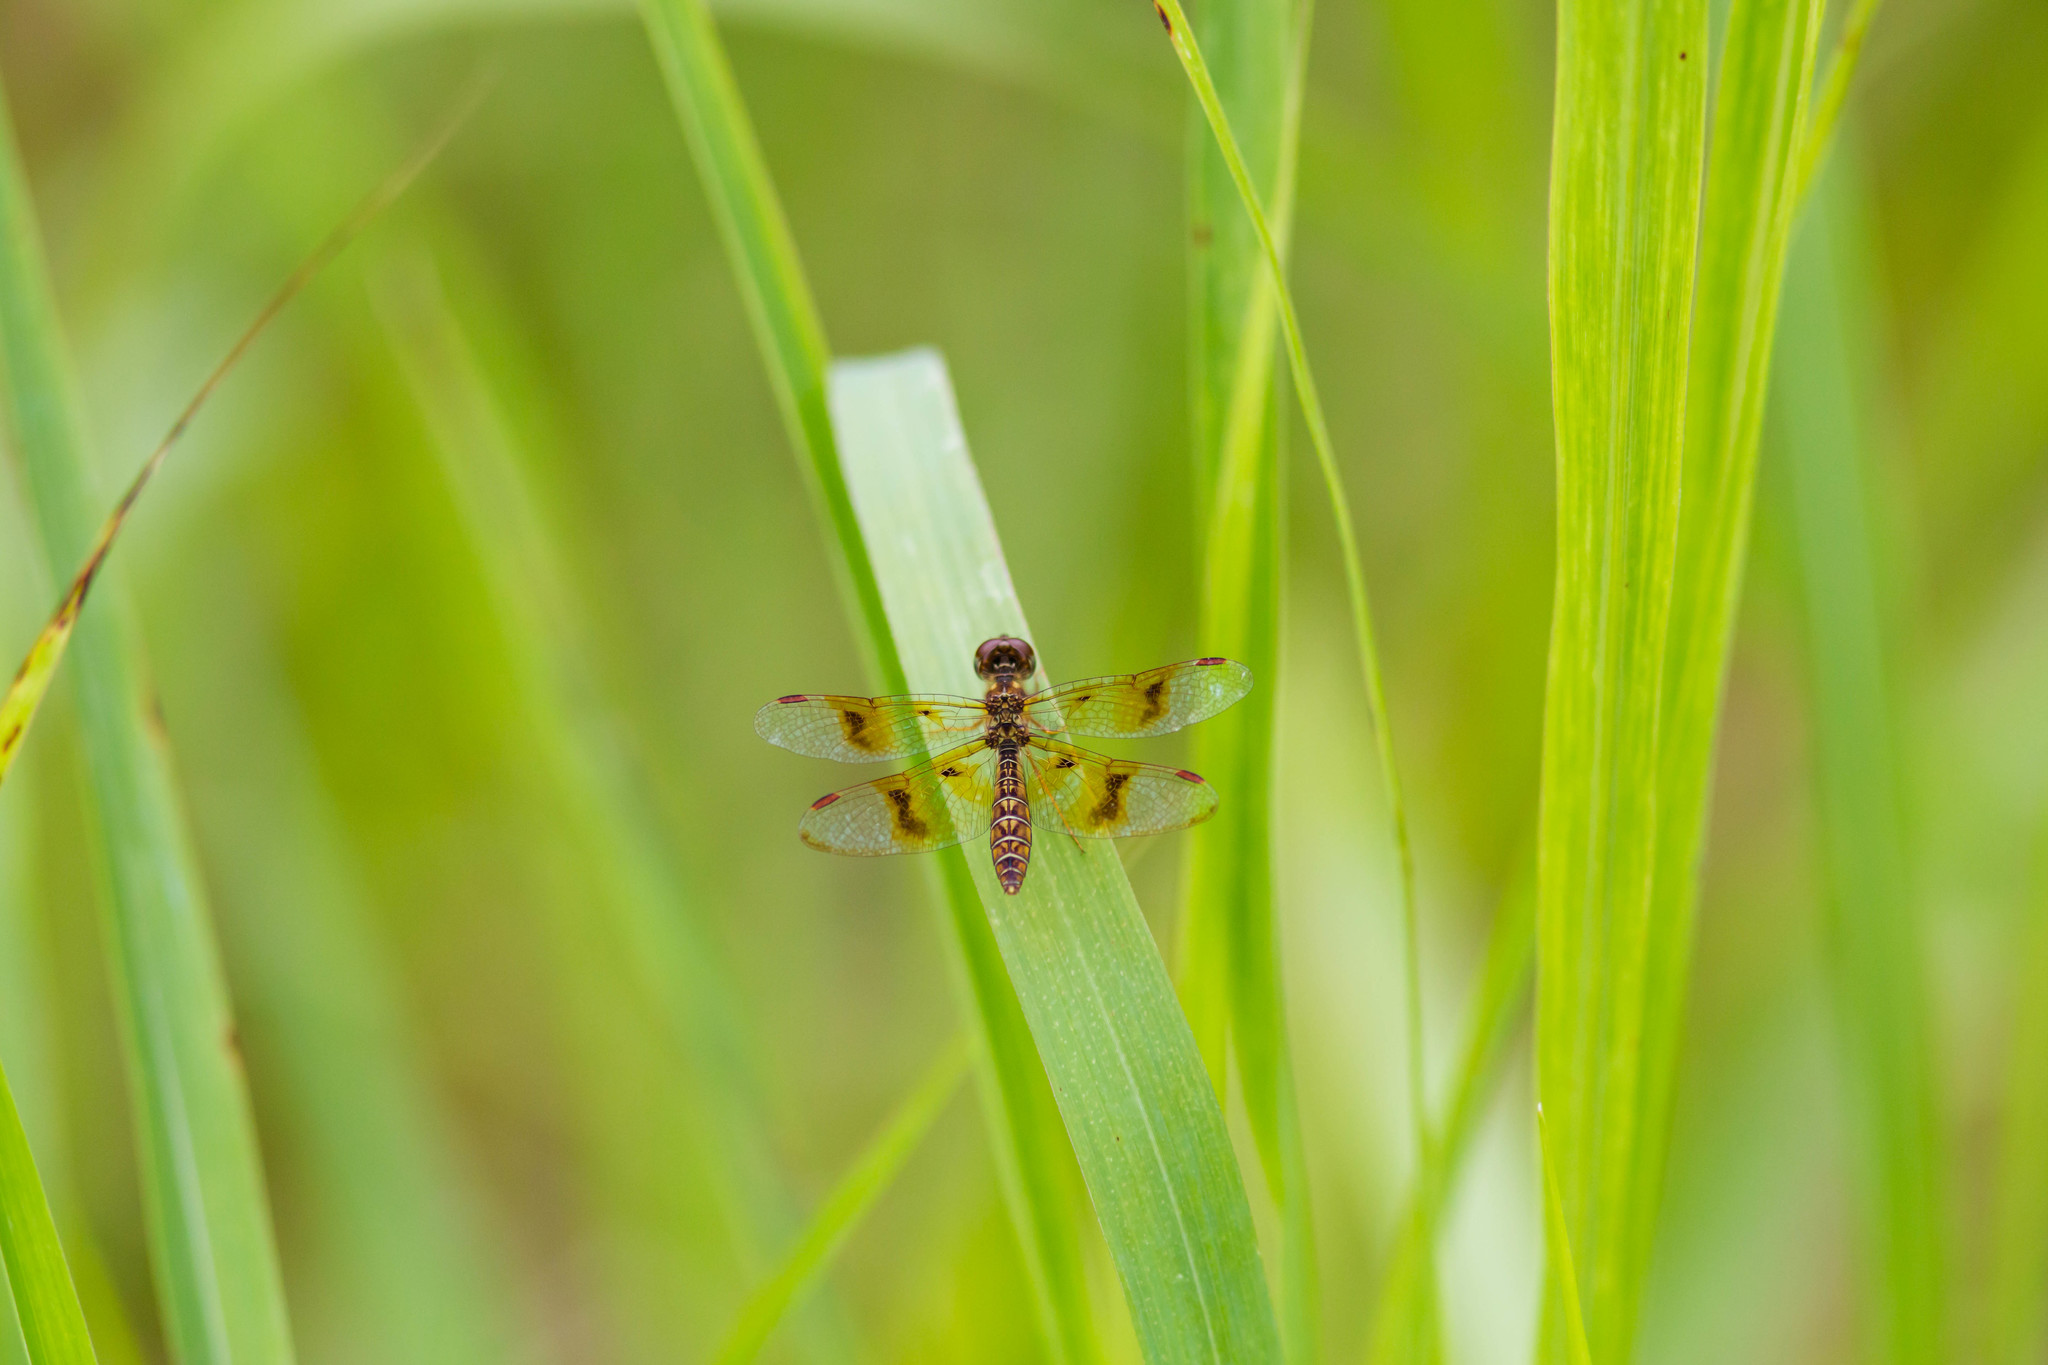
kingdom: Animalia
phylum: Arthropoda
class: Insecta
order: Odonata
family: Libellulidae
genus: Perithemis
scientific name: Perithemis tenera
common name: Eastern amberwing
